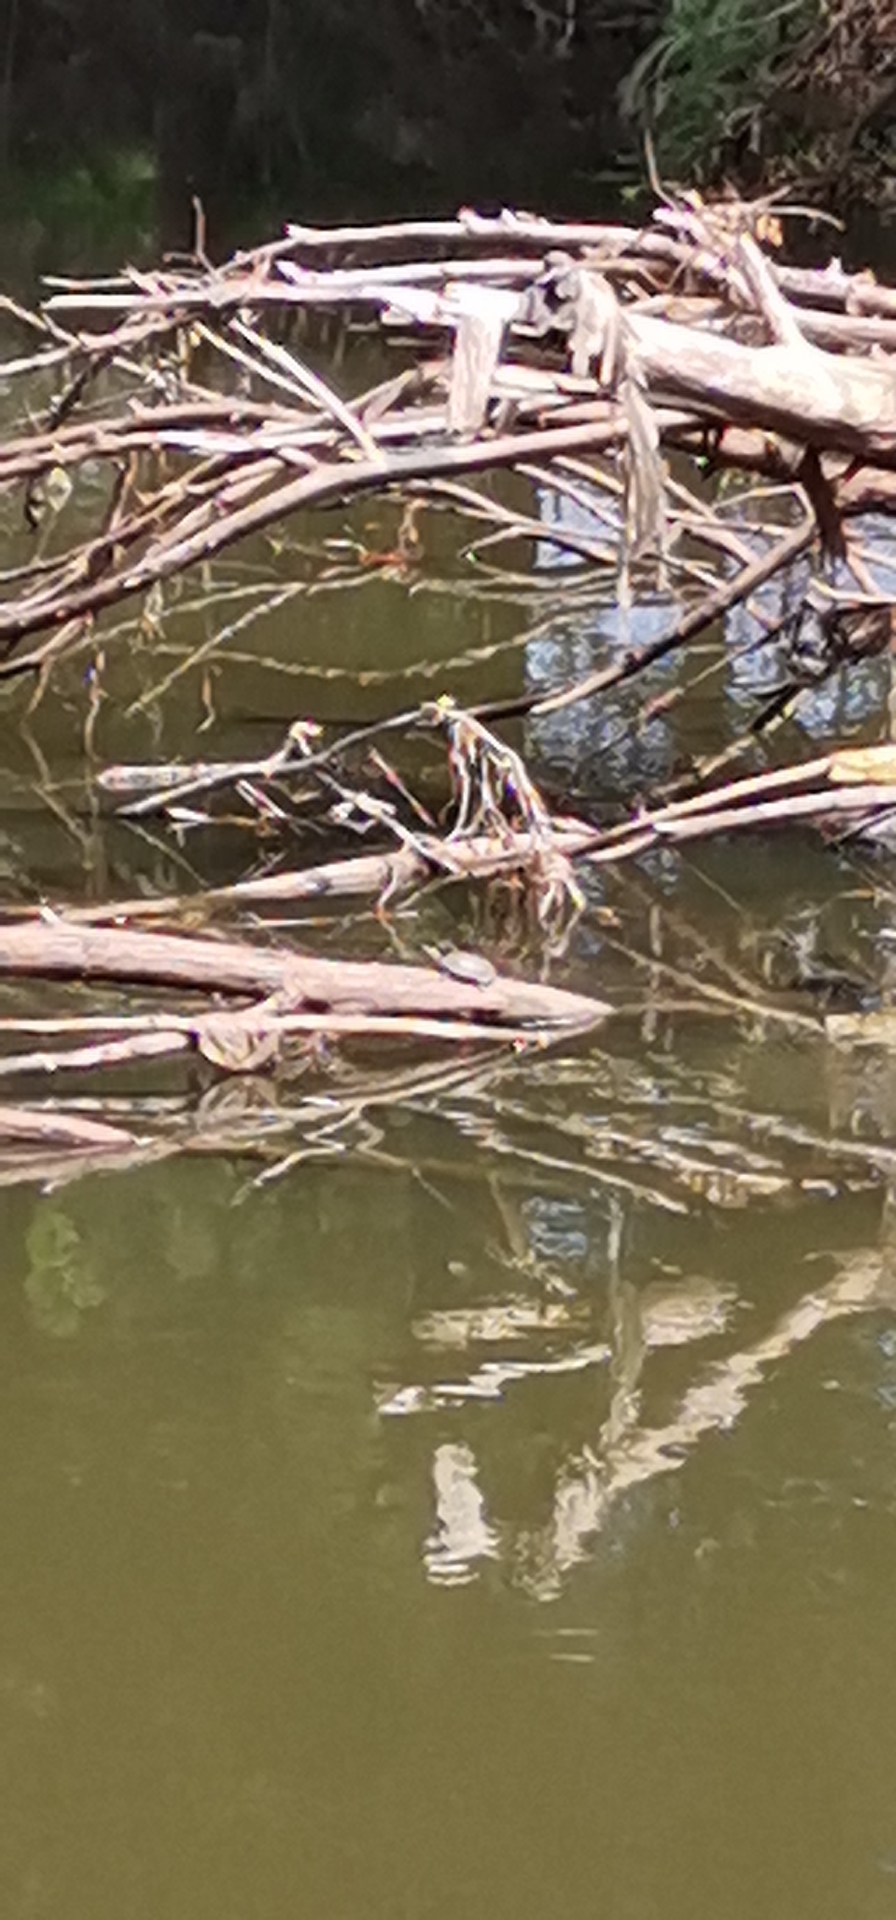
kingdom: Animalia
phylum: Chordata
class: Testudines
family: Kinosternidae
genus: Kinosternon
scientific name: Kinosternon integrum
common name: Mexican mud turtle
